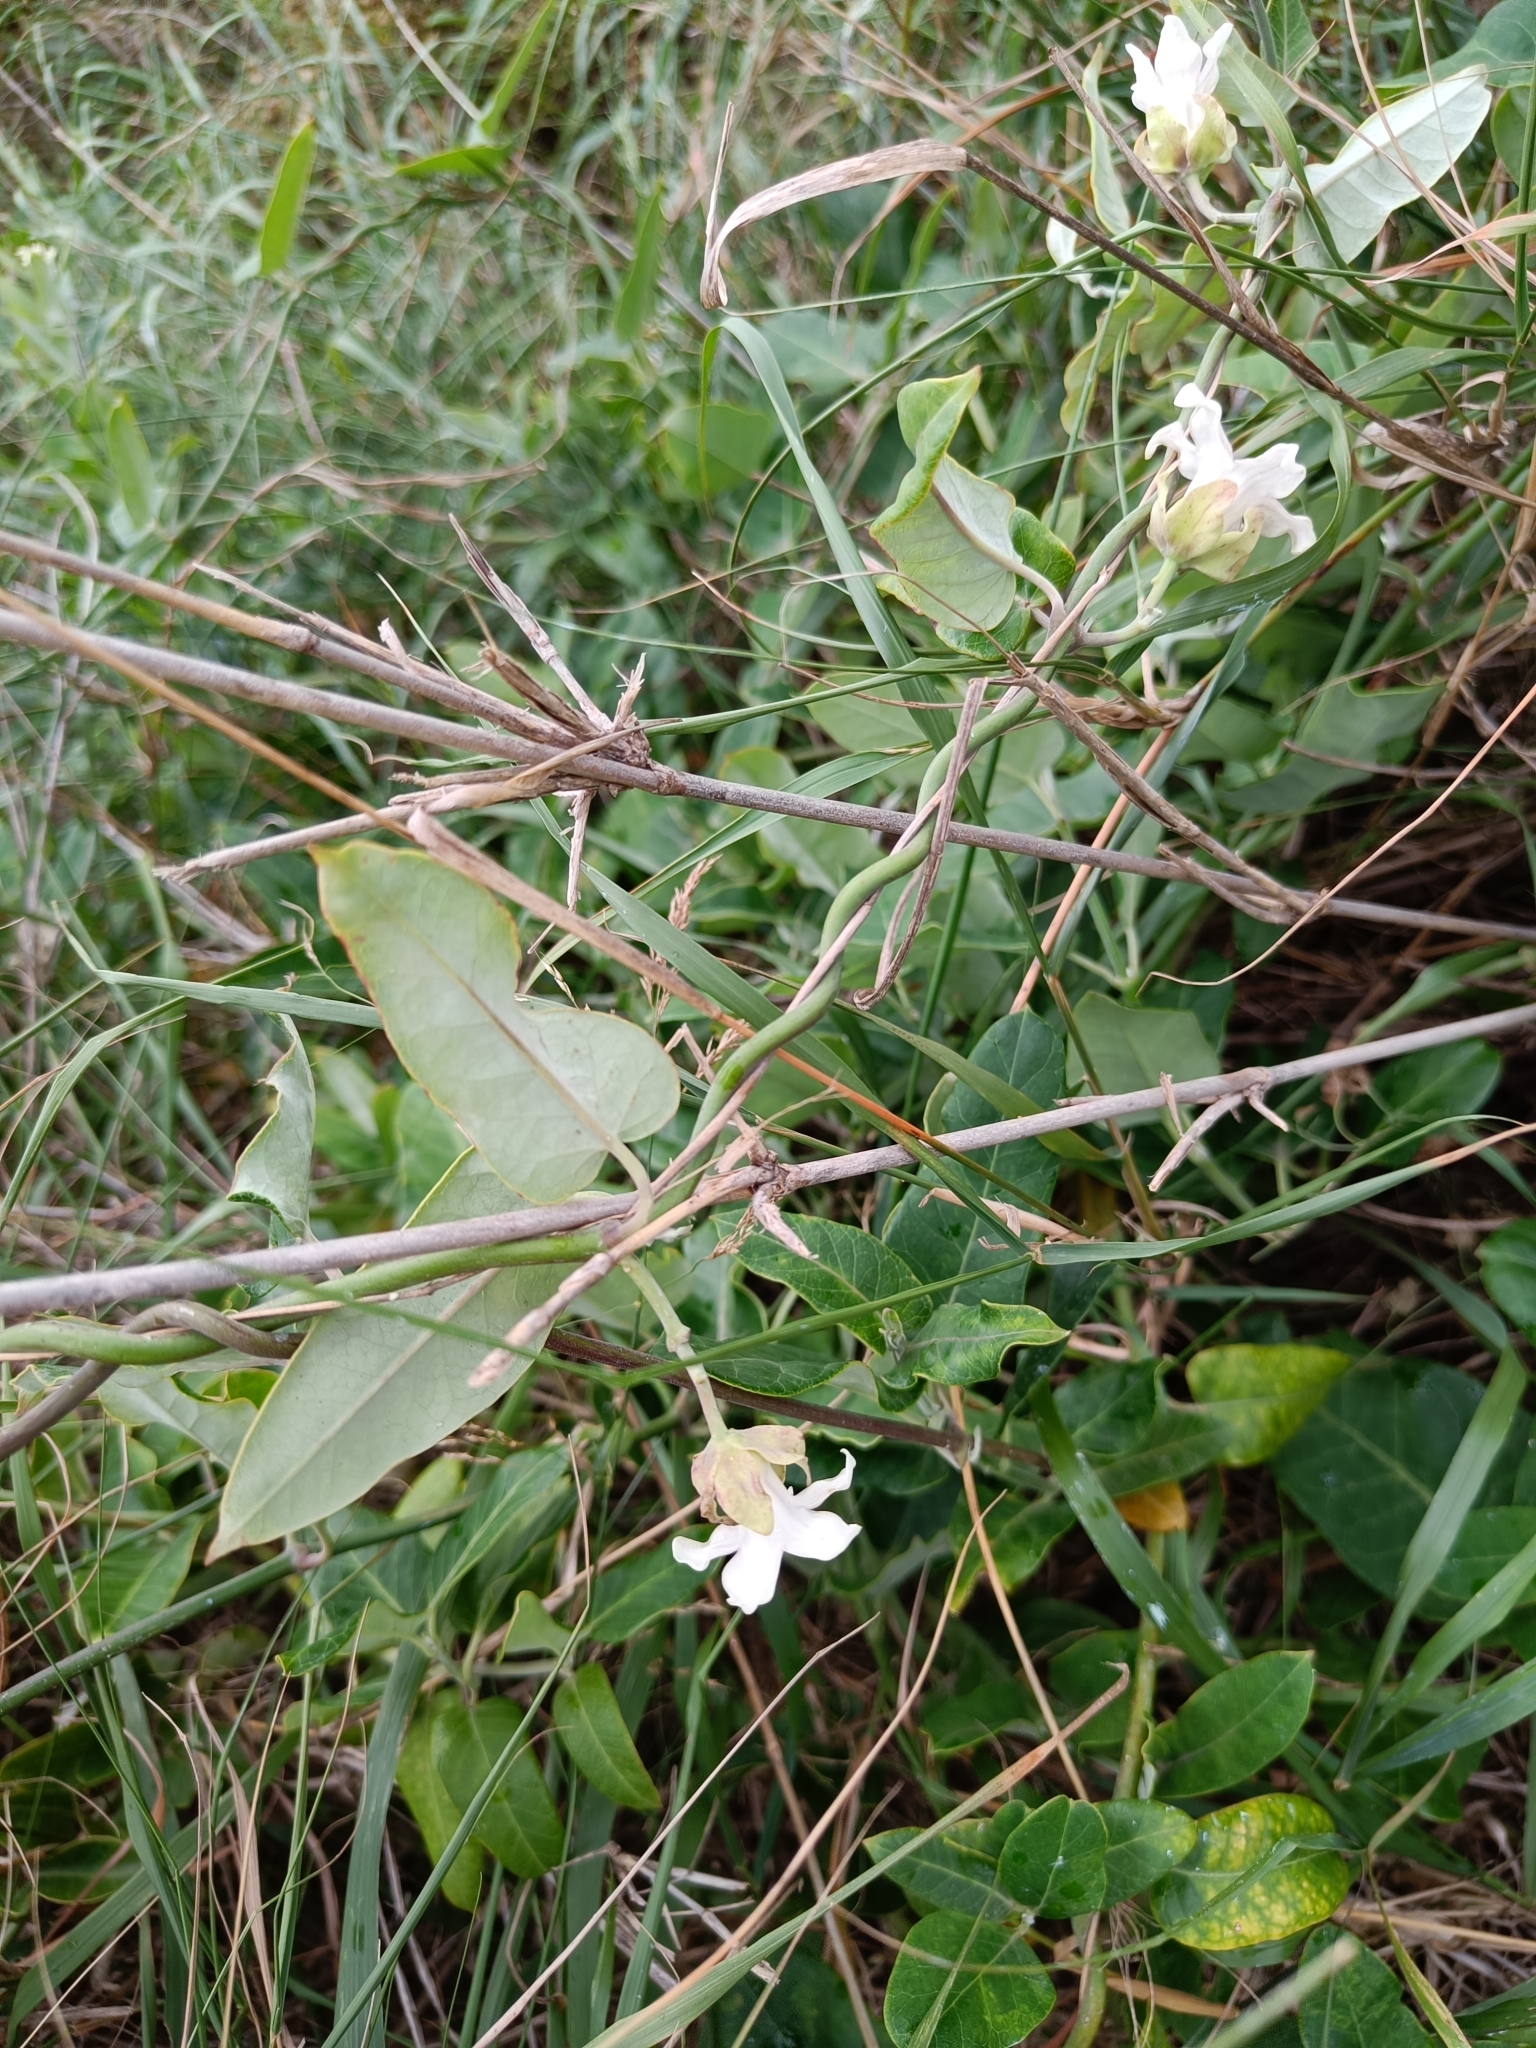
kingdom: Plantae
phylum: Tracheophyta
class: Magnoliopsida
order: Gentianales
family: Apocynaceae
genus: Araujia
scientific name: Araujia sericifera
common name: White bladderflower
